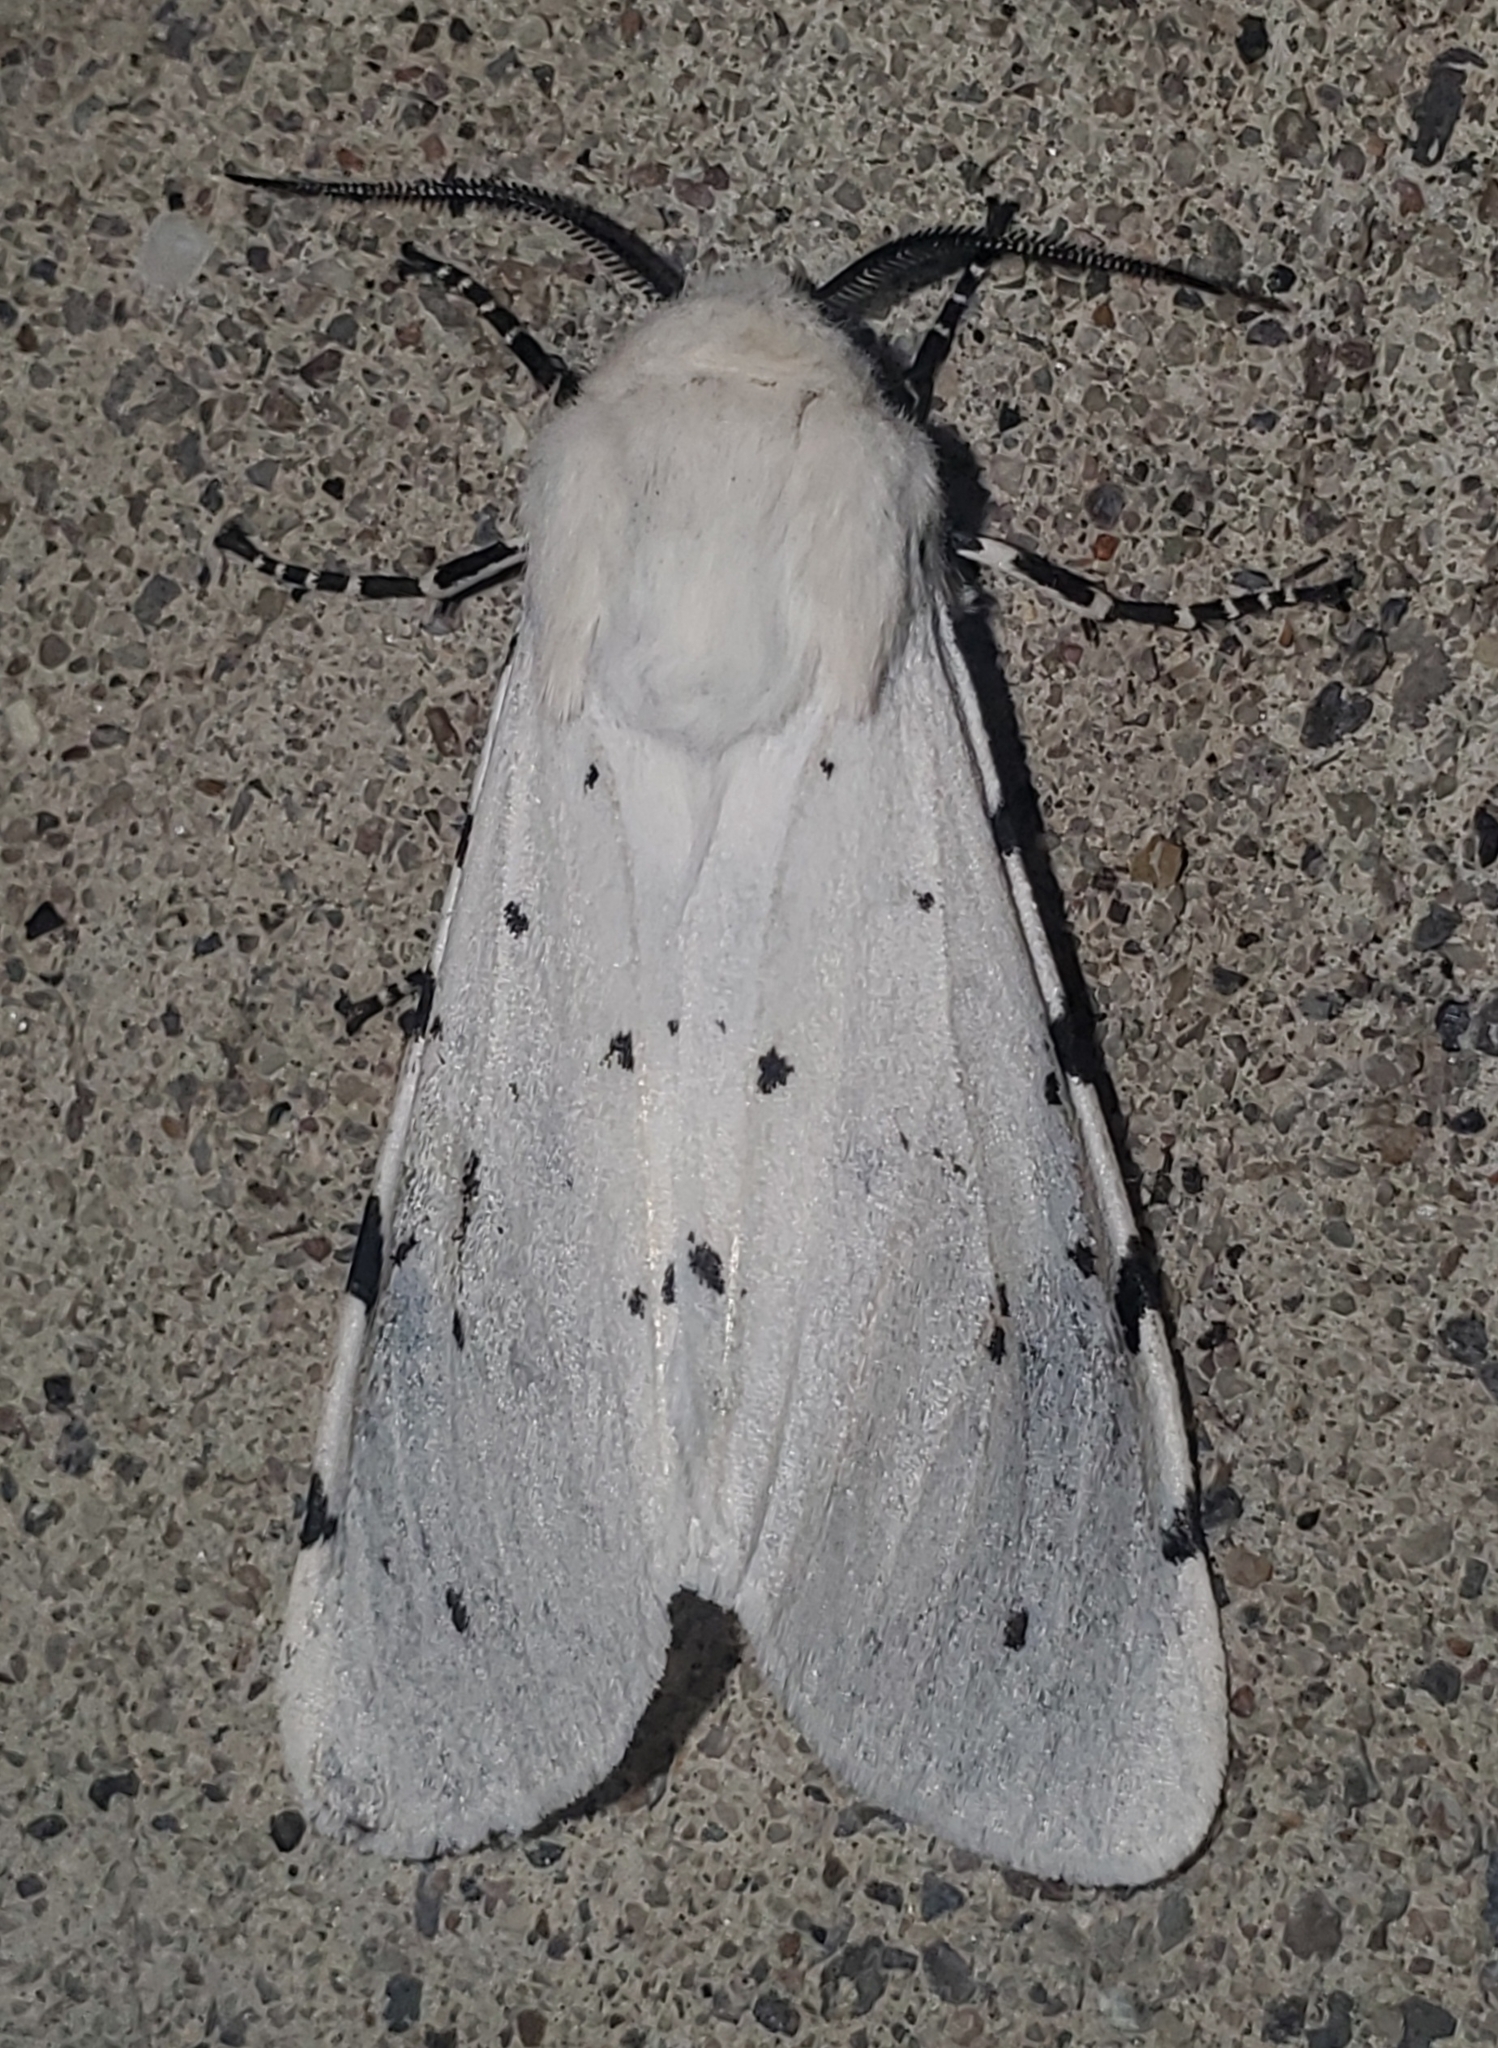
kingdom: Animalia
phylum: Arthropoda
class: Insecta
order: Lepidoptera
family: Erebidae
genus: Estigmene
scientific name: Estigmene albida
